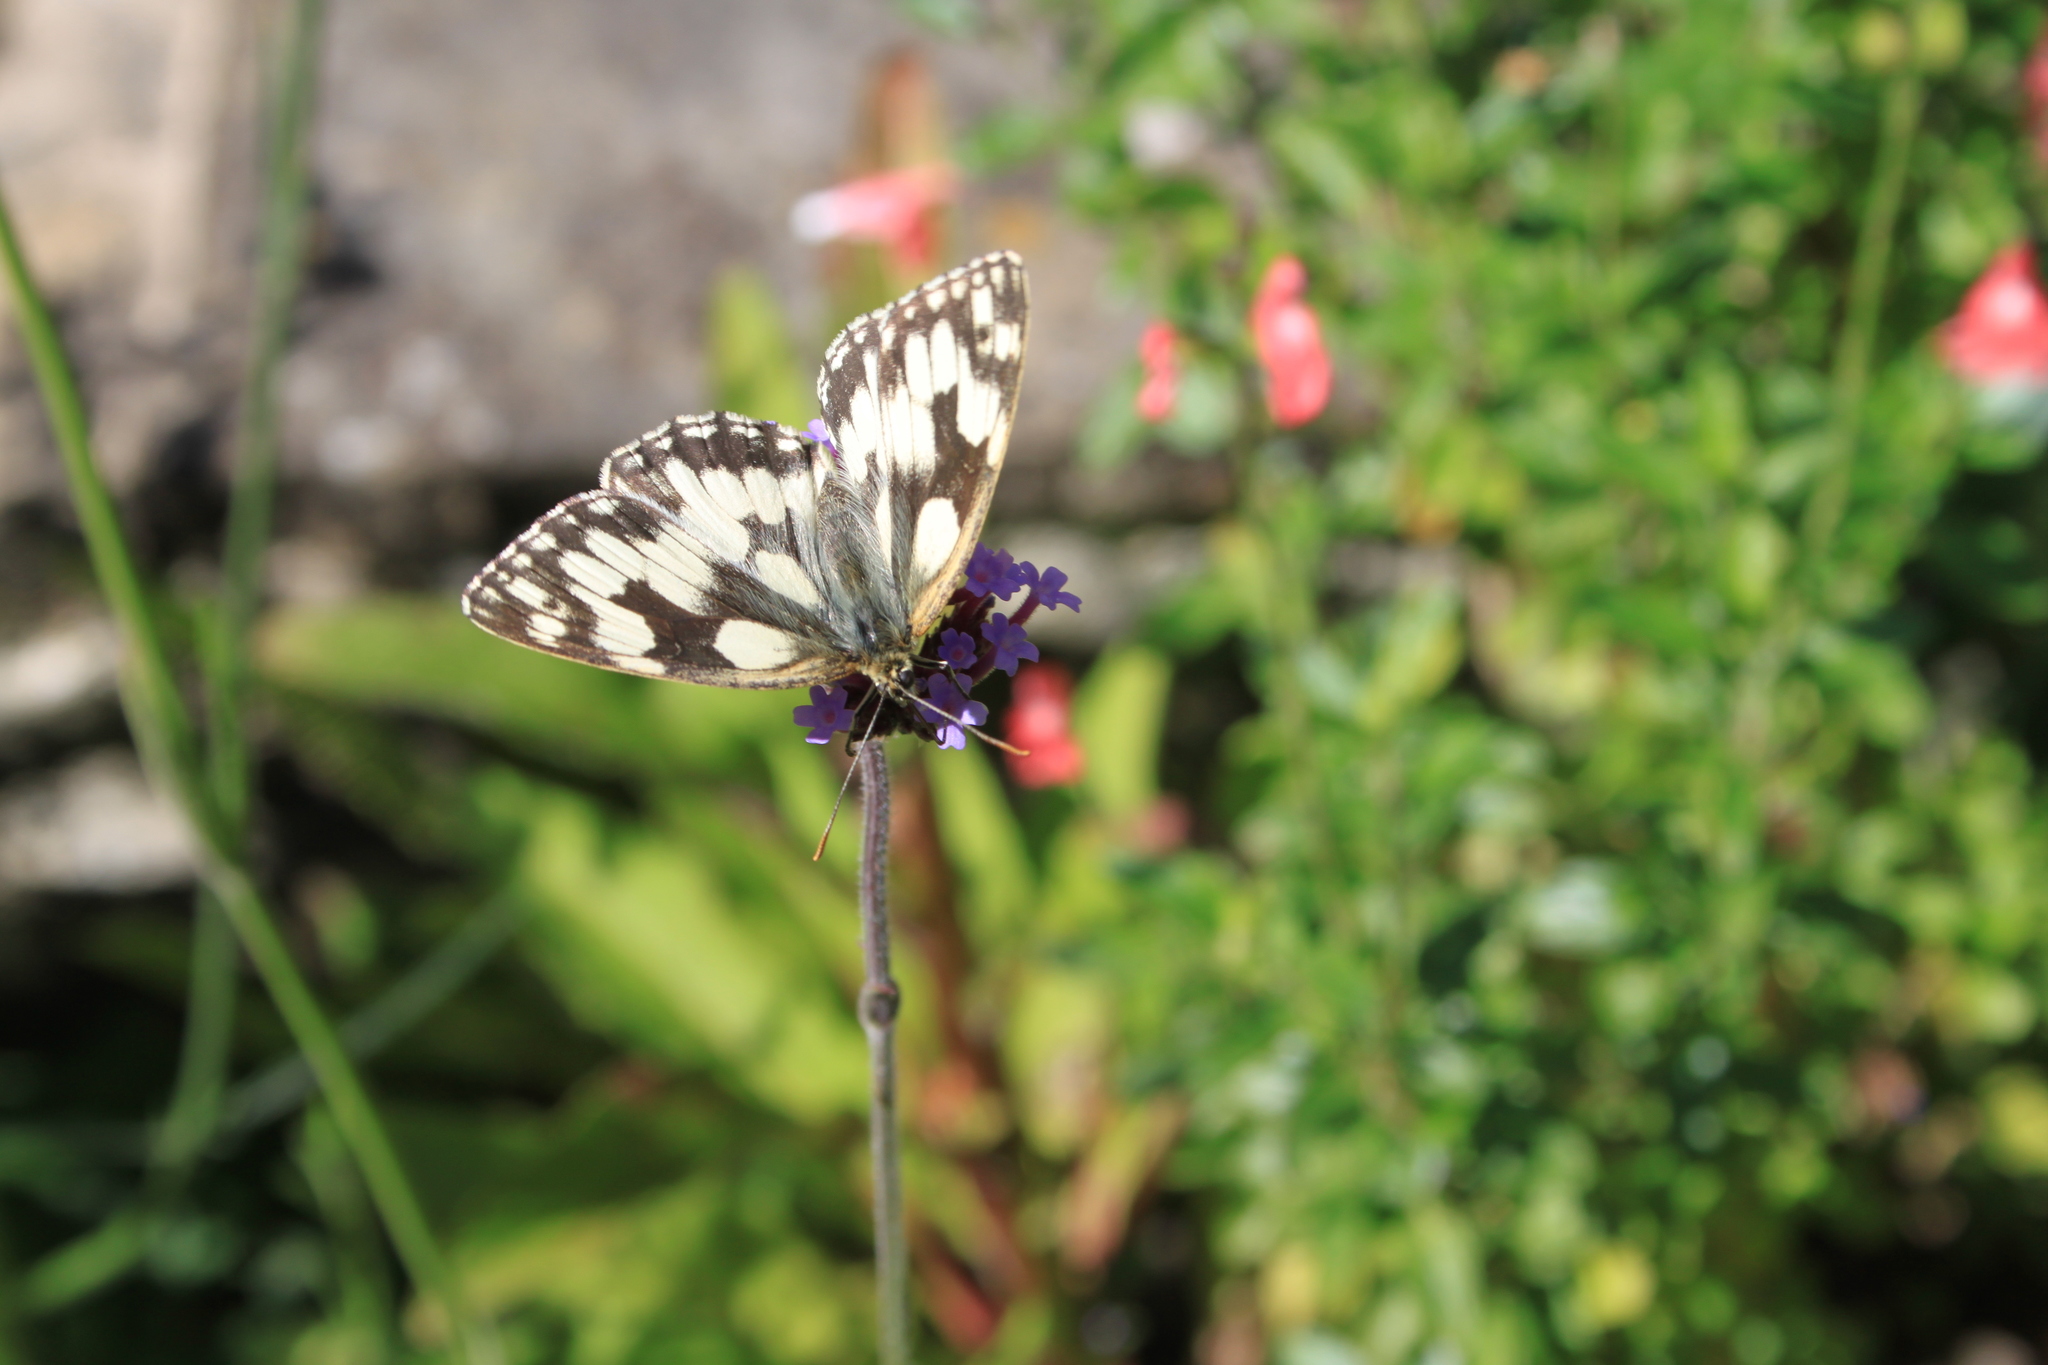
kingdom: Animalia
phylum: Arthropoda
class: Insecta
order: Lepidoptera
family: Nymphalidae
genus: Melanargia
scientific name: Melanargia galathea
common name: Marbled white
